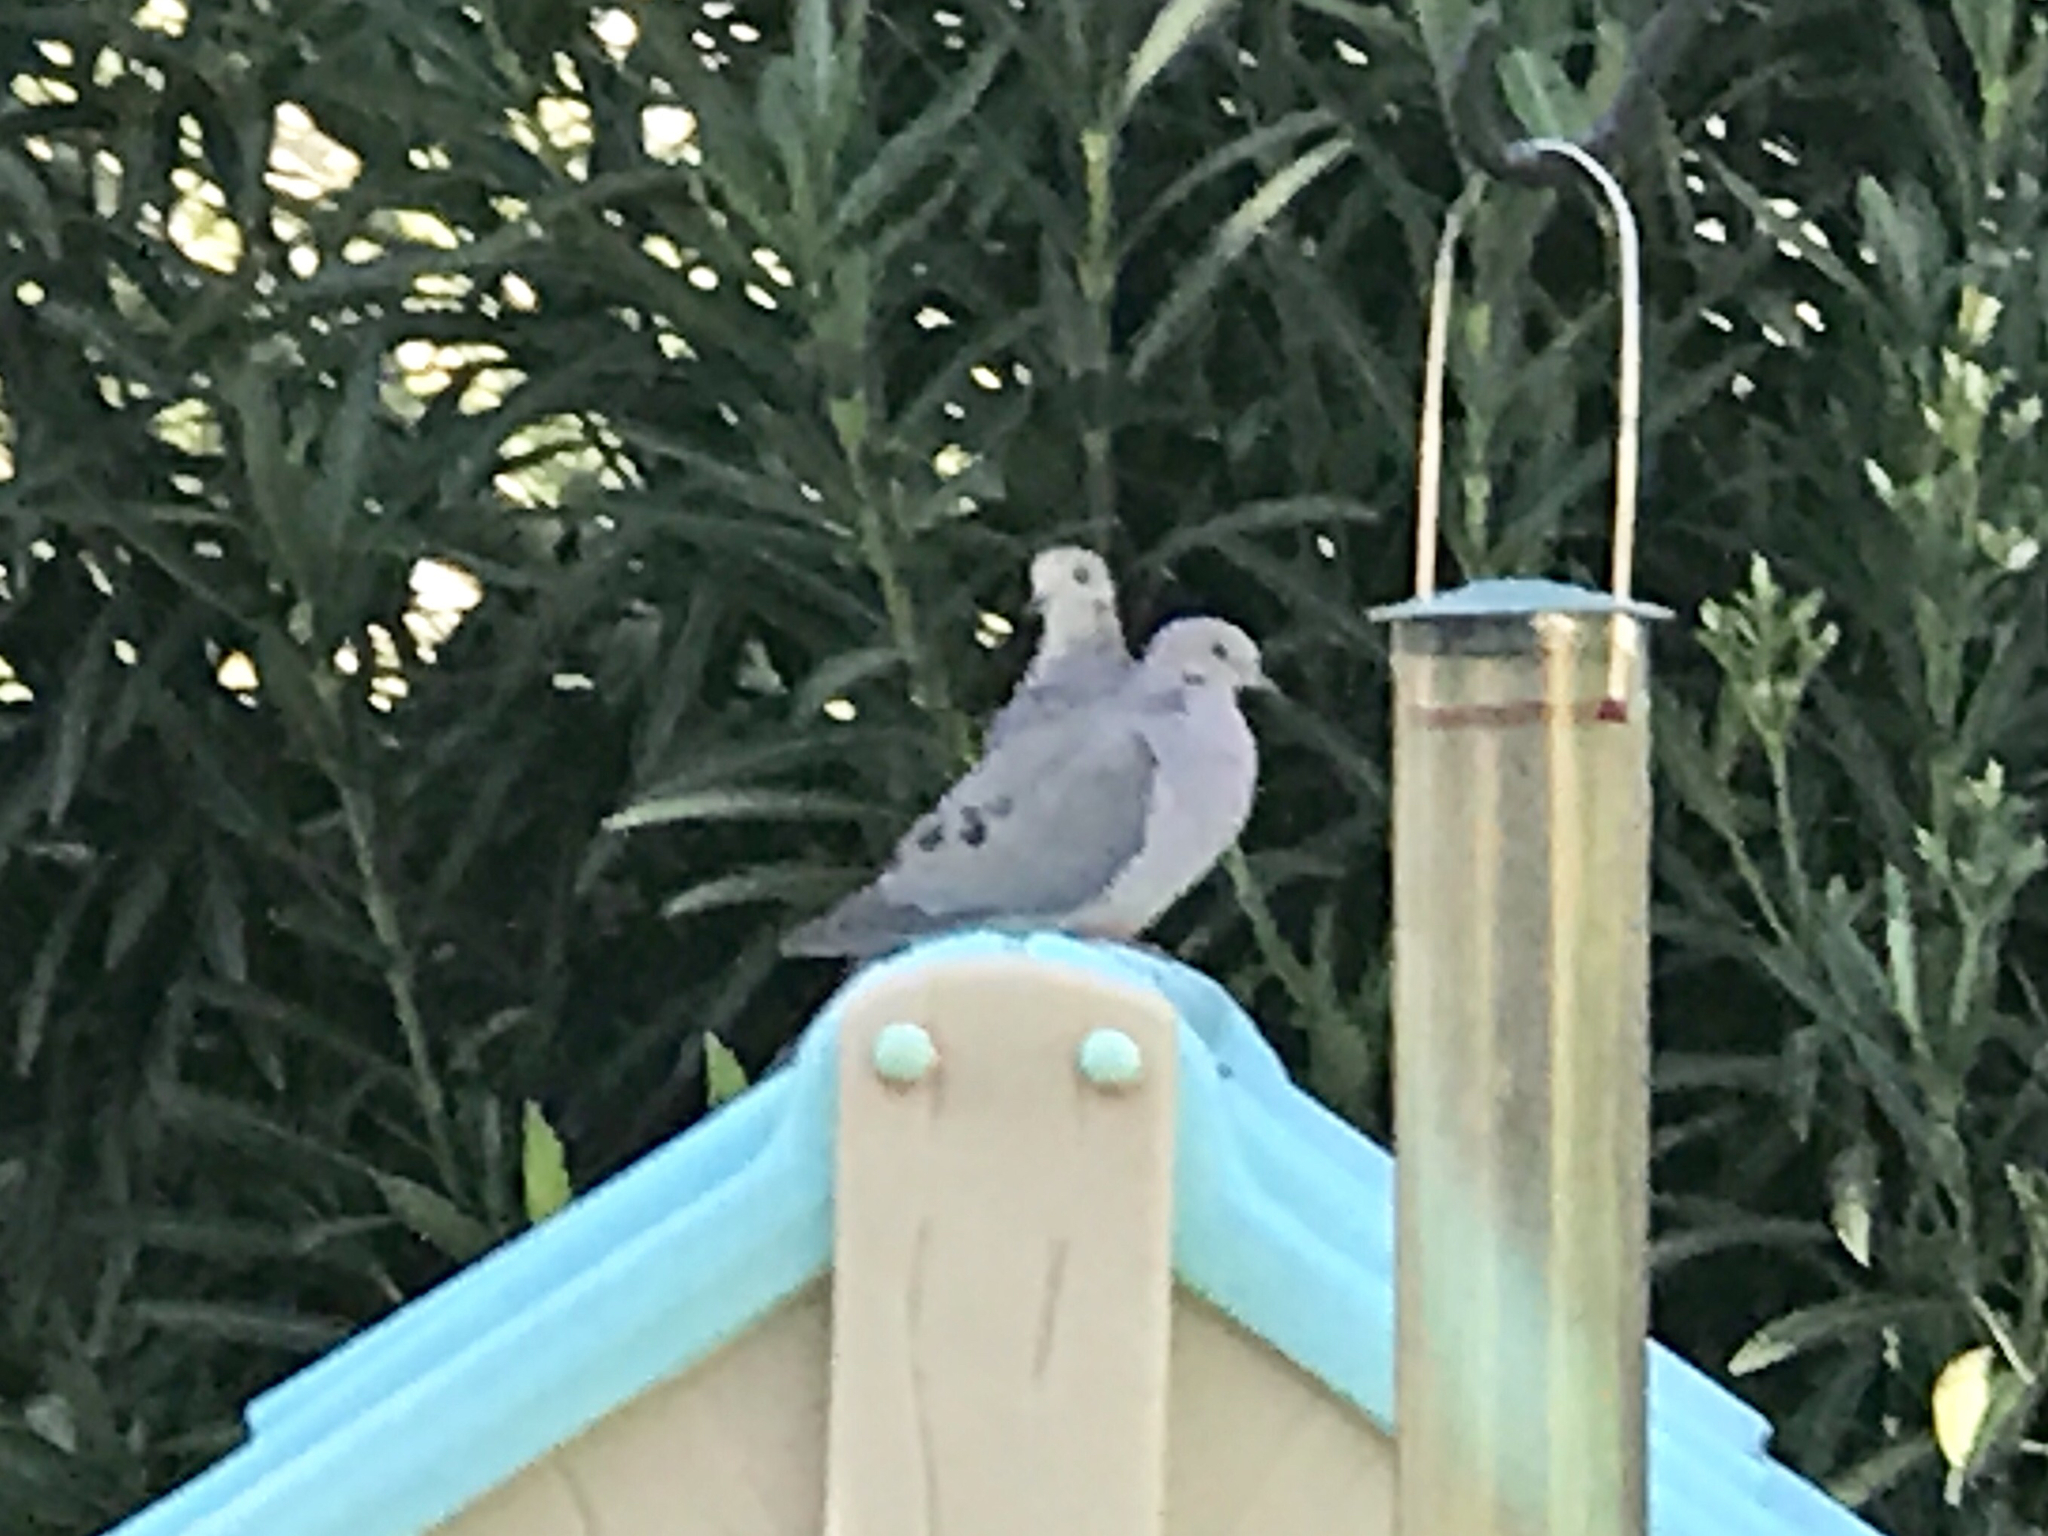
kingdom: Animalia
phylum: Chordata
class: Aves
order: Columbiformes
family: Columbidae
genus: Zenaida
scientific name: Zenaida macroura
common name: Mourning dove
